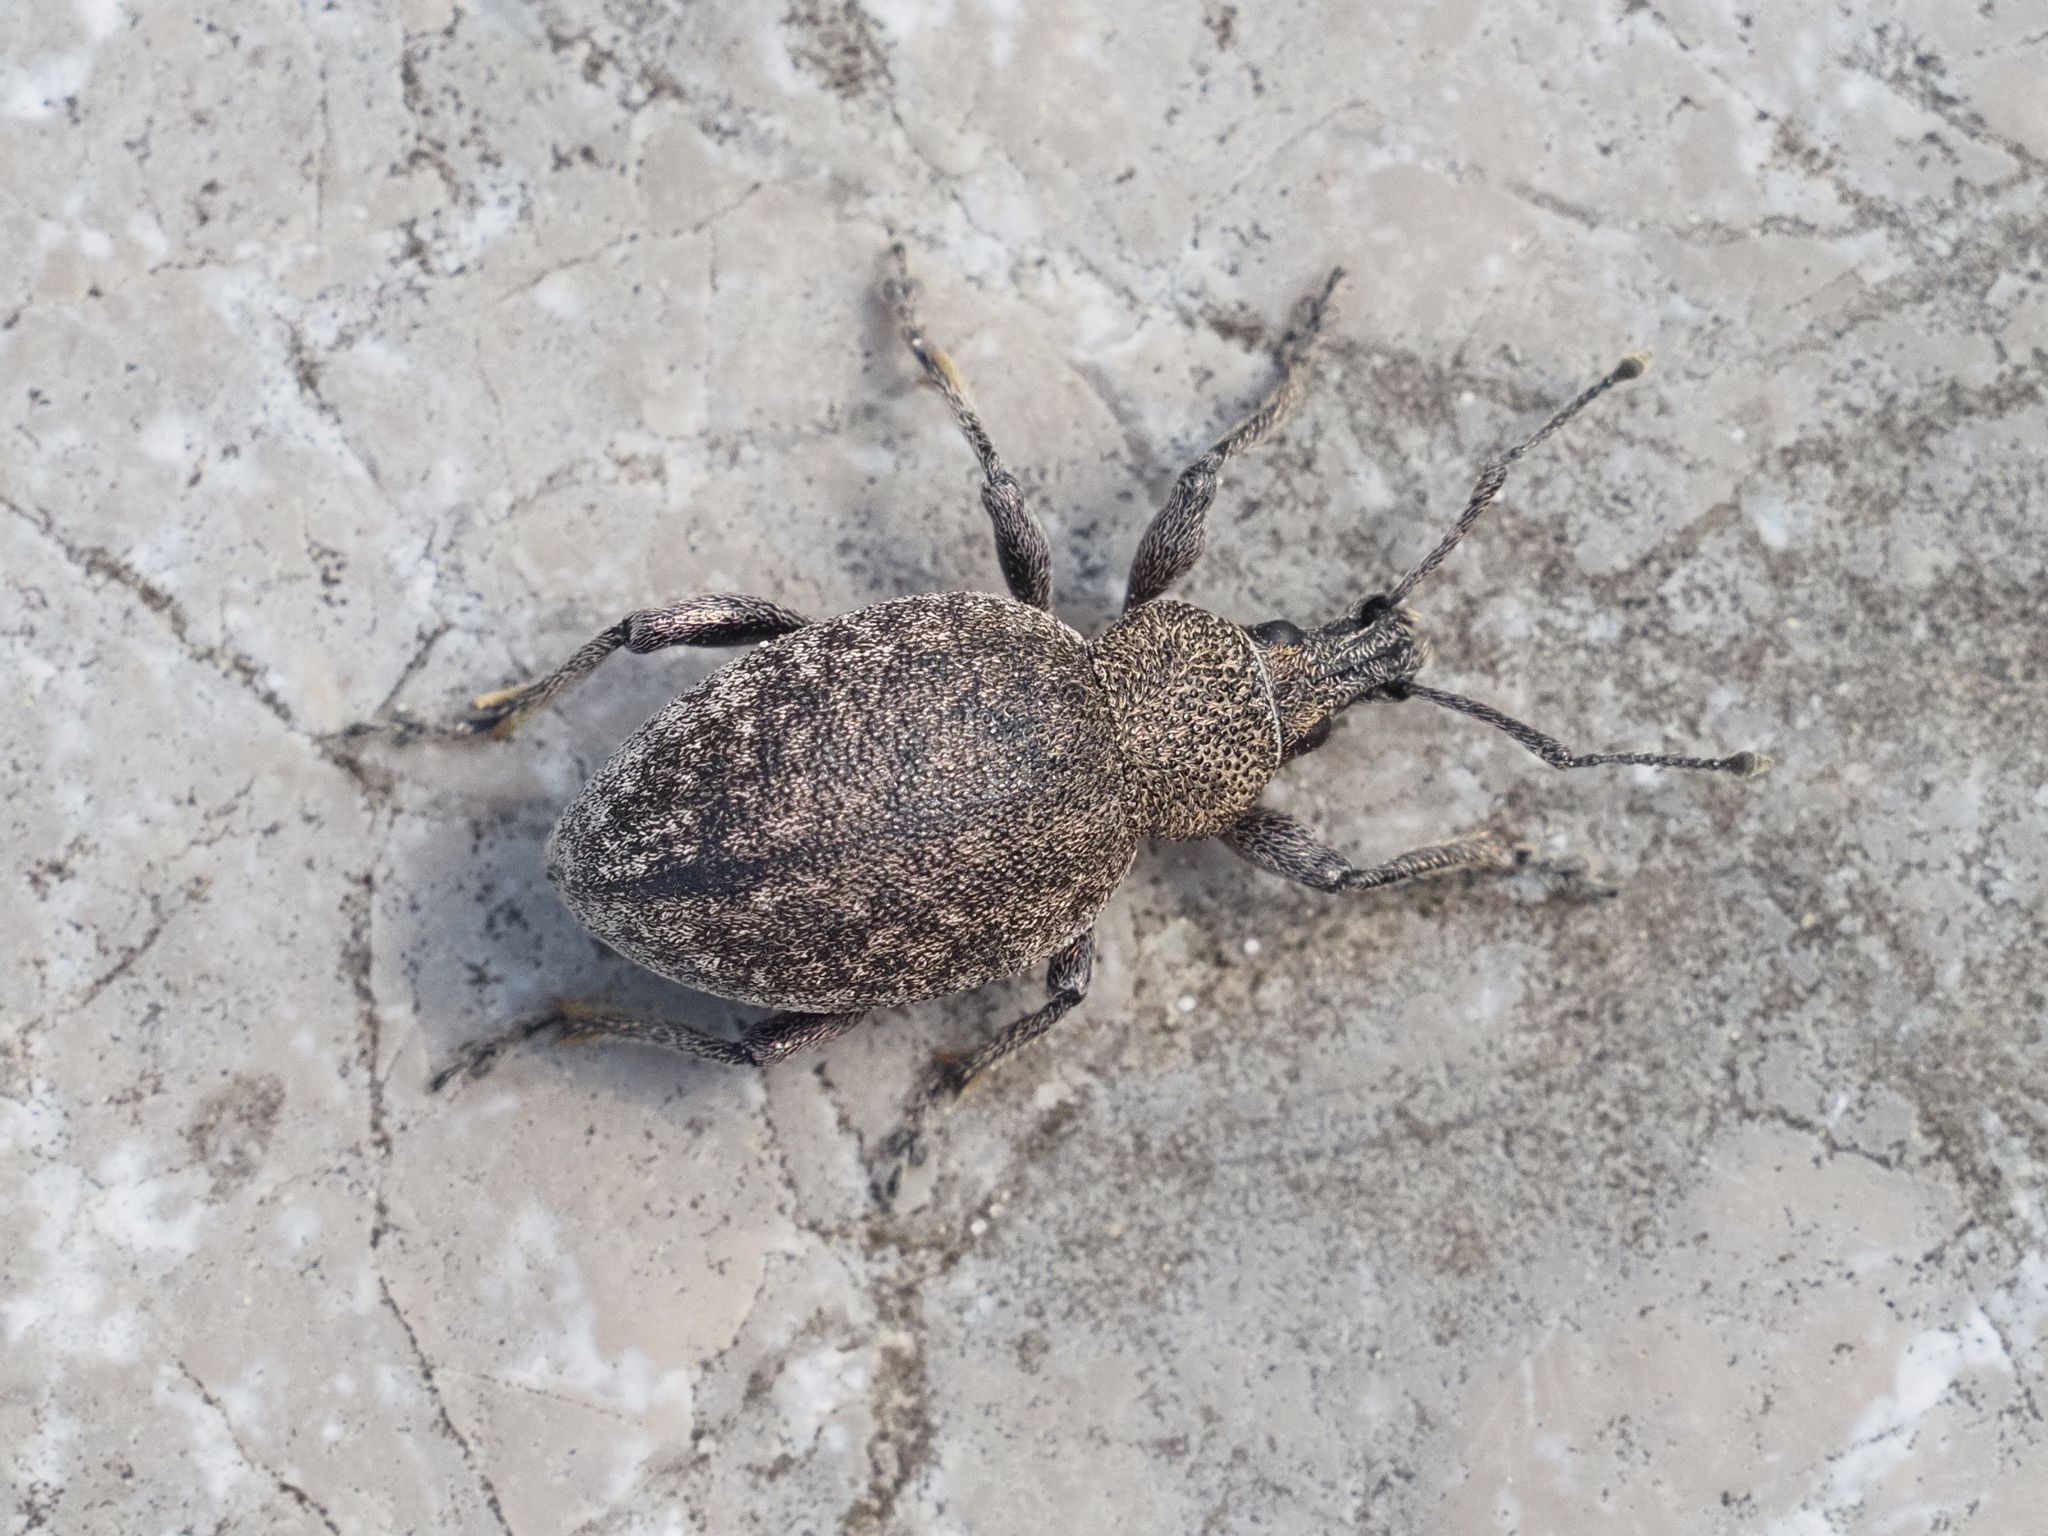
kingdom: Animalia
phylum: Arthropoda
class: Insecta
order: Coleoptera
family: Curculionidae
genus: Otiorhynchus
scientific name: Otiorhynchus ligustici
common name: Weevil
